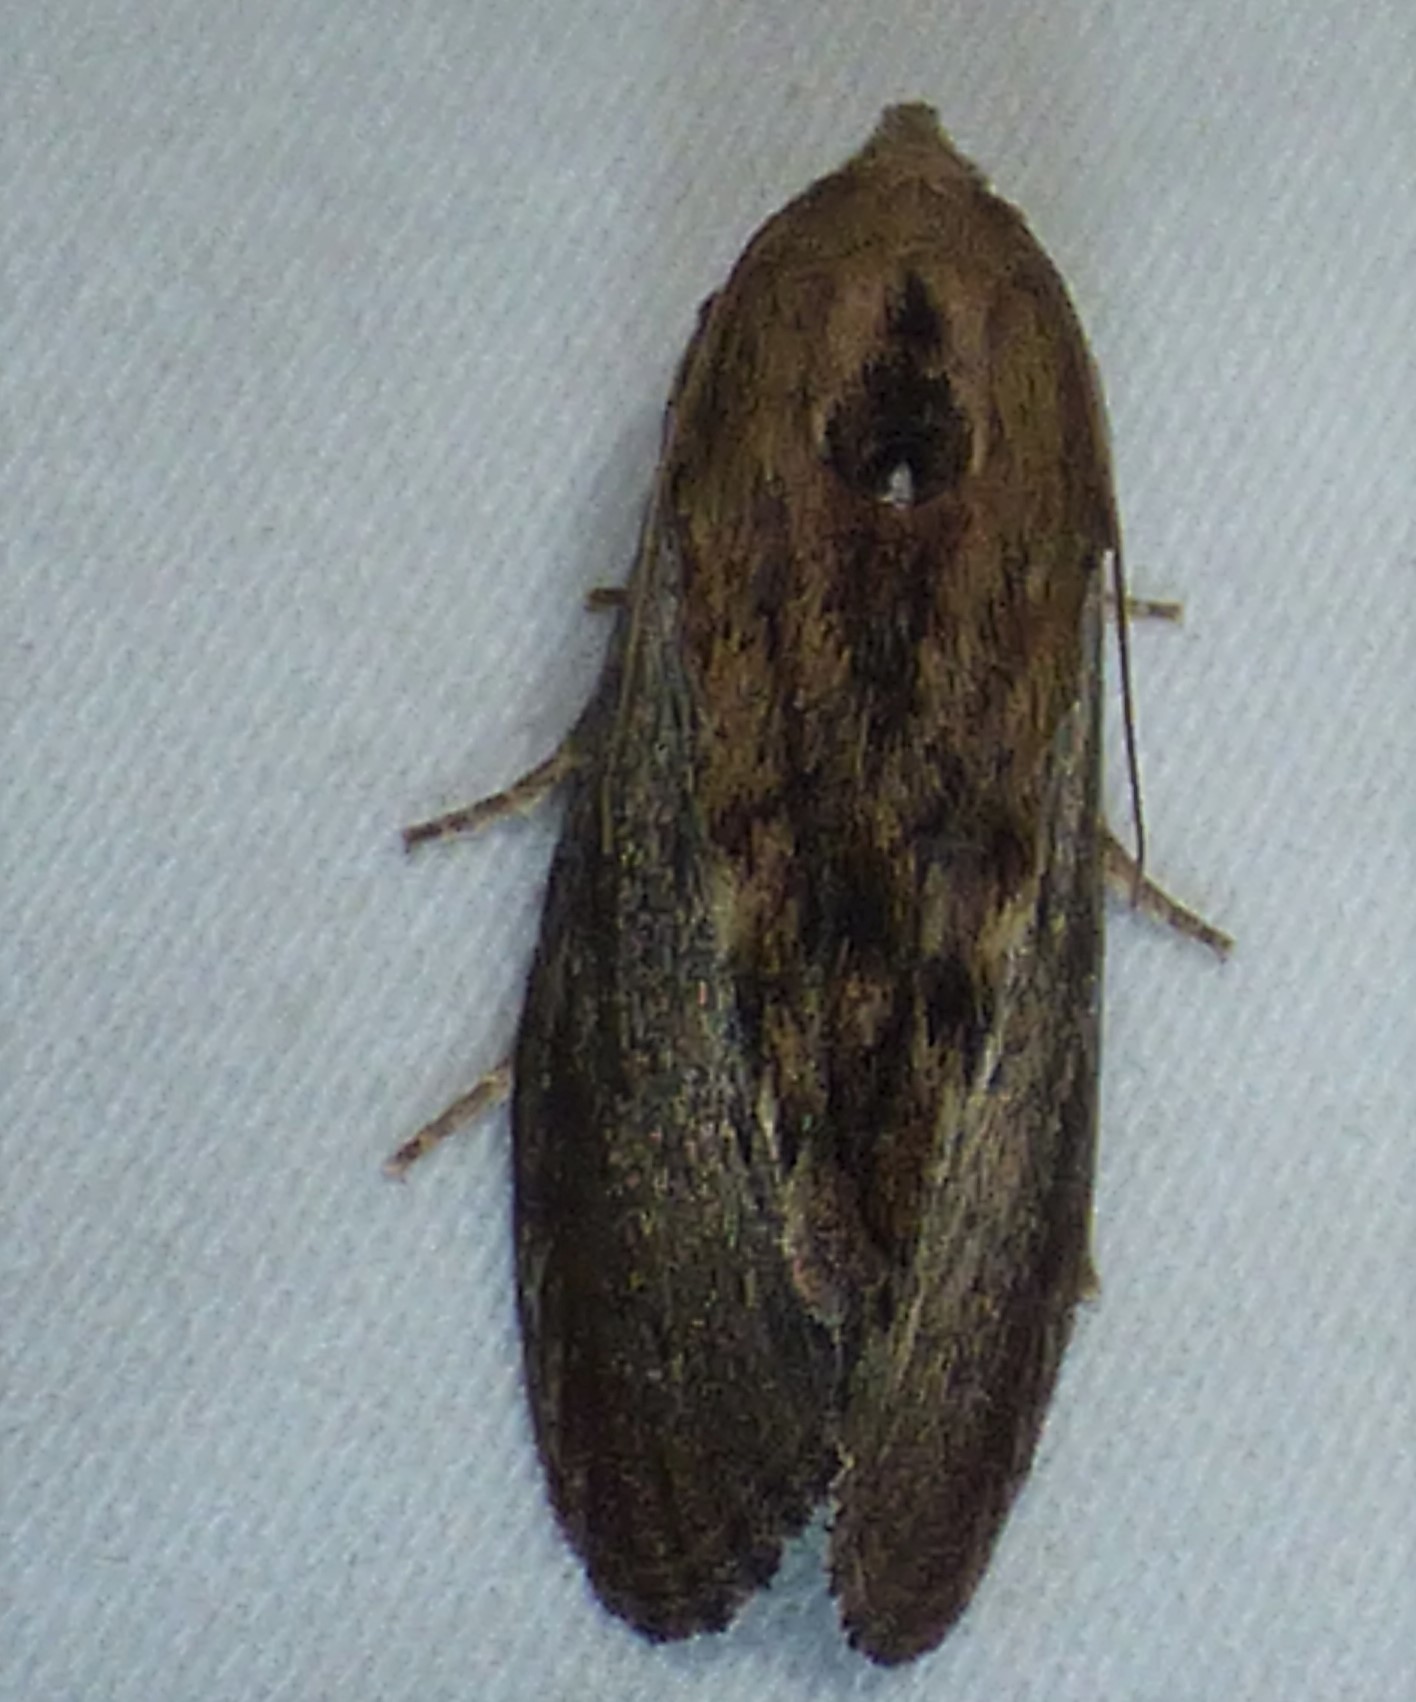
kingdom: Animalia
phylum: Arthropoda
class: Insecta
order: Lepidoptera
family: Pyralidae
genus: Galleria
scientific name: Galleria mellonella
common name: Greater wax moth
